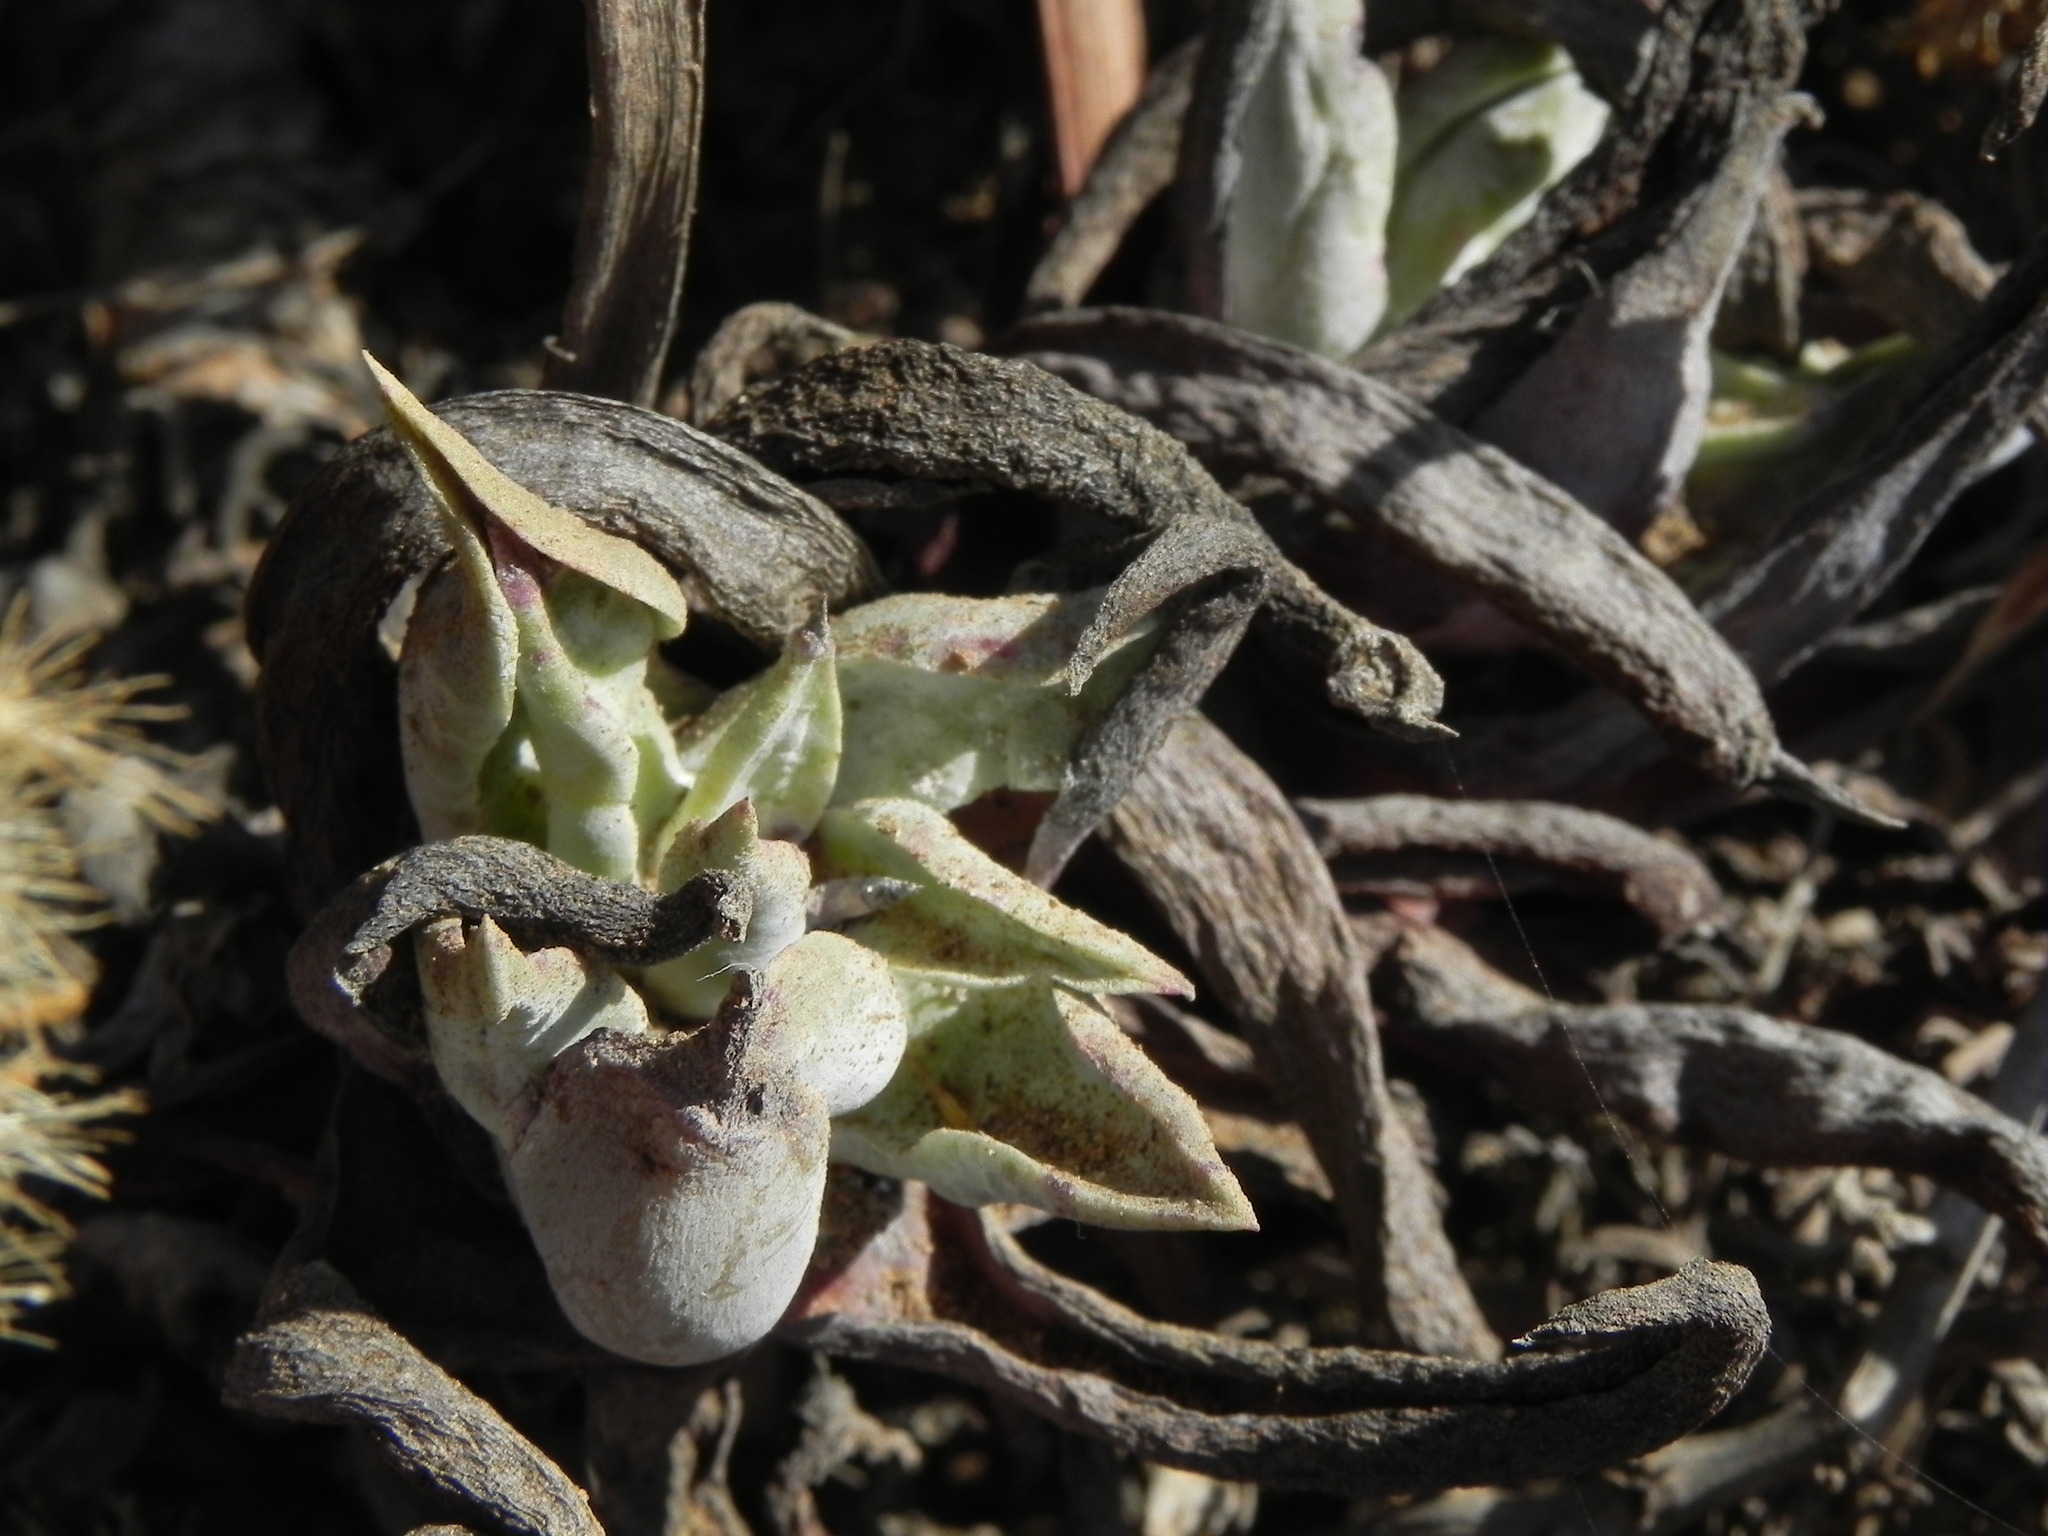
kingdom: Plantae
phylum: Tracheophyta
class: Magnoliopsida
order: Saxifragales
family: Crassulaceae
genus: Dudleya
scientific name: Dudleya caespitosa
